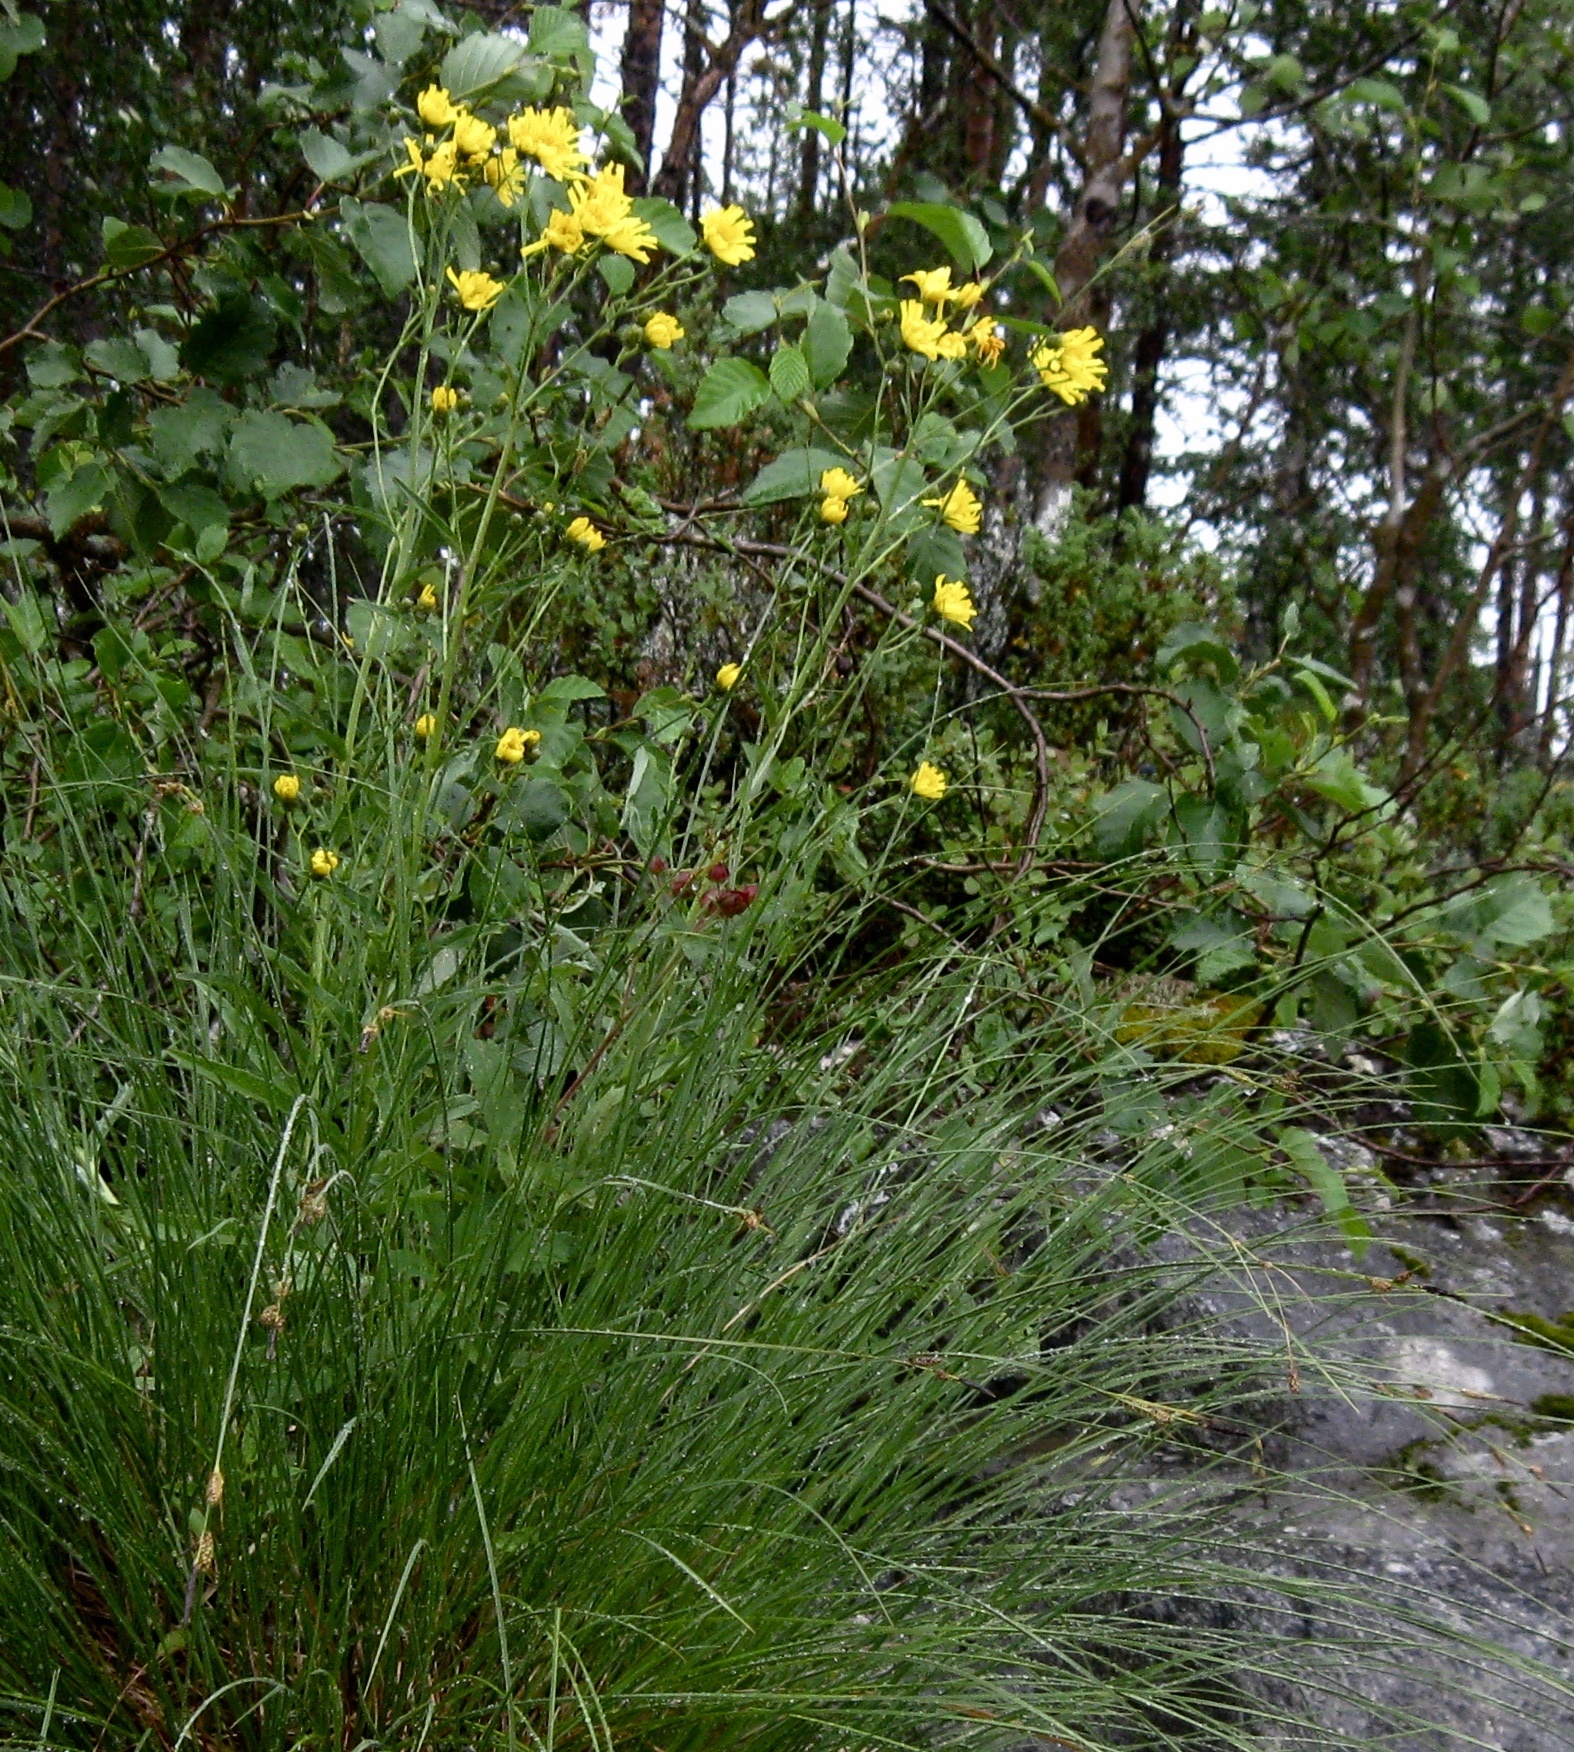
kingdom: Plantae
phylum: Tracheophyta
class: Magnoliopsida
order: Asterales
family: Asteraceae
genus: Hieracium
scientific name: Hieracium umbellatum
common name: Northern hawkweed
